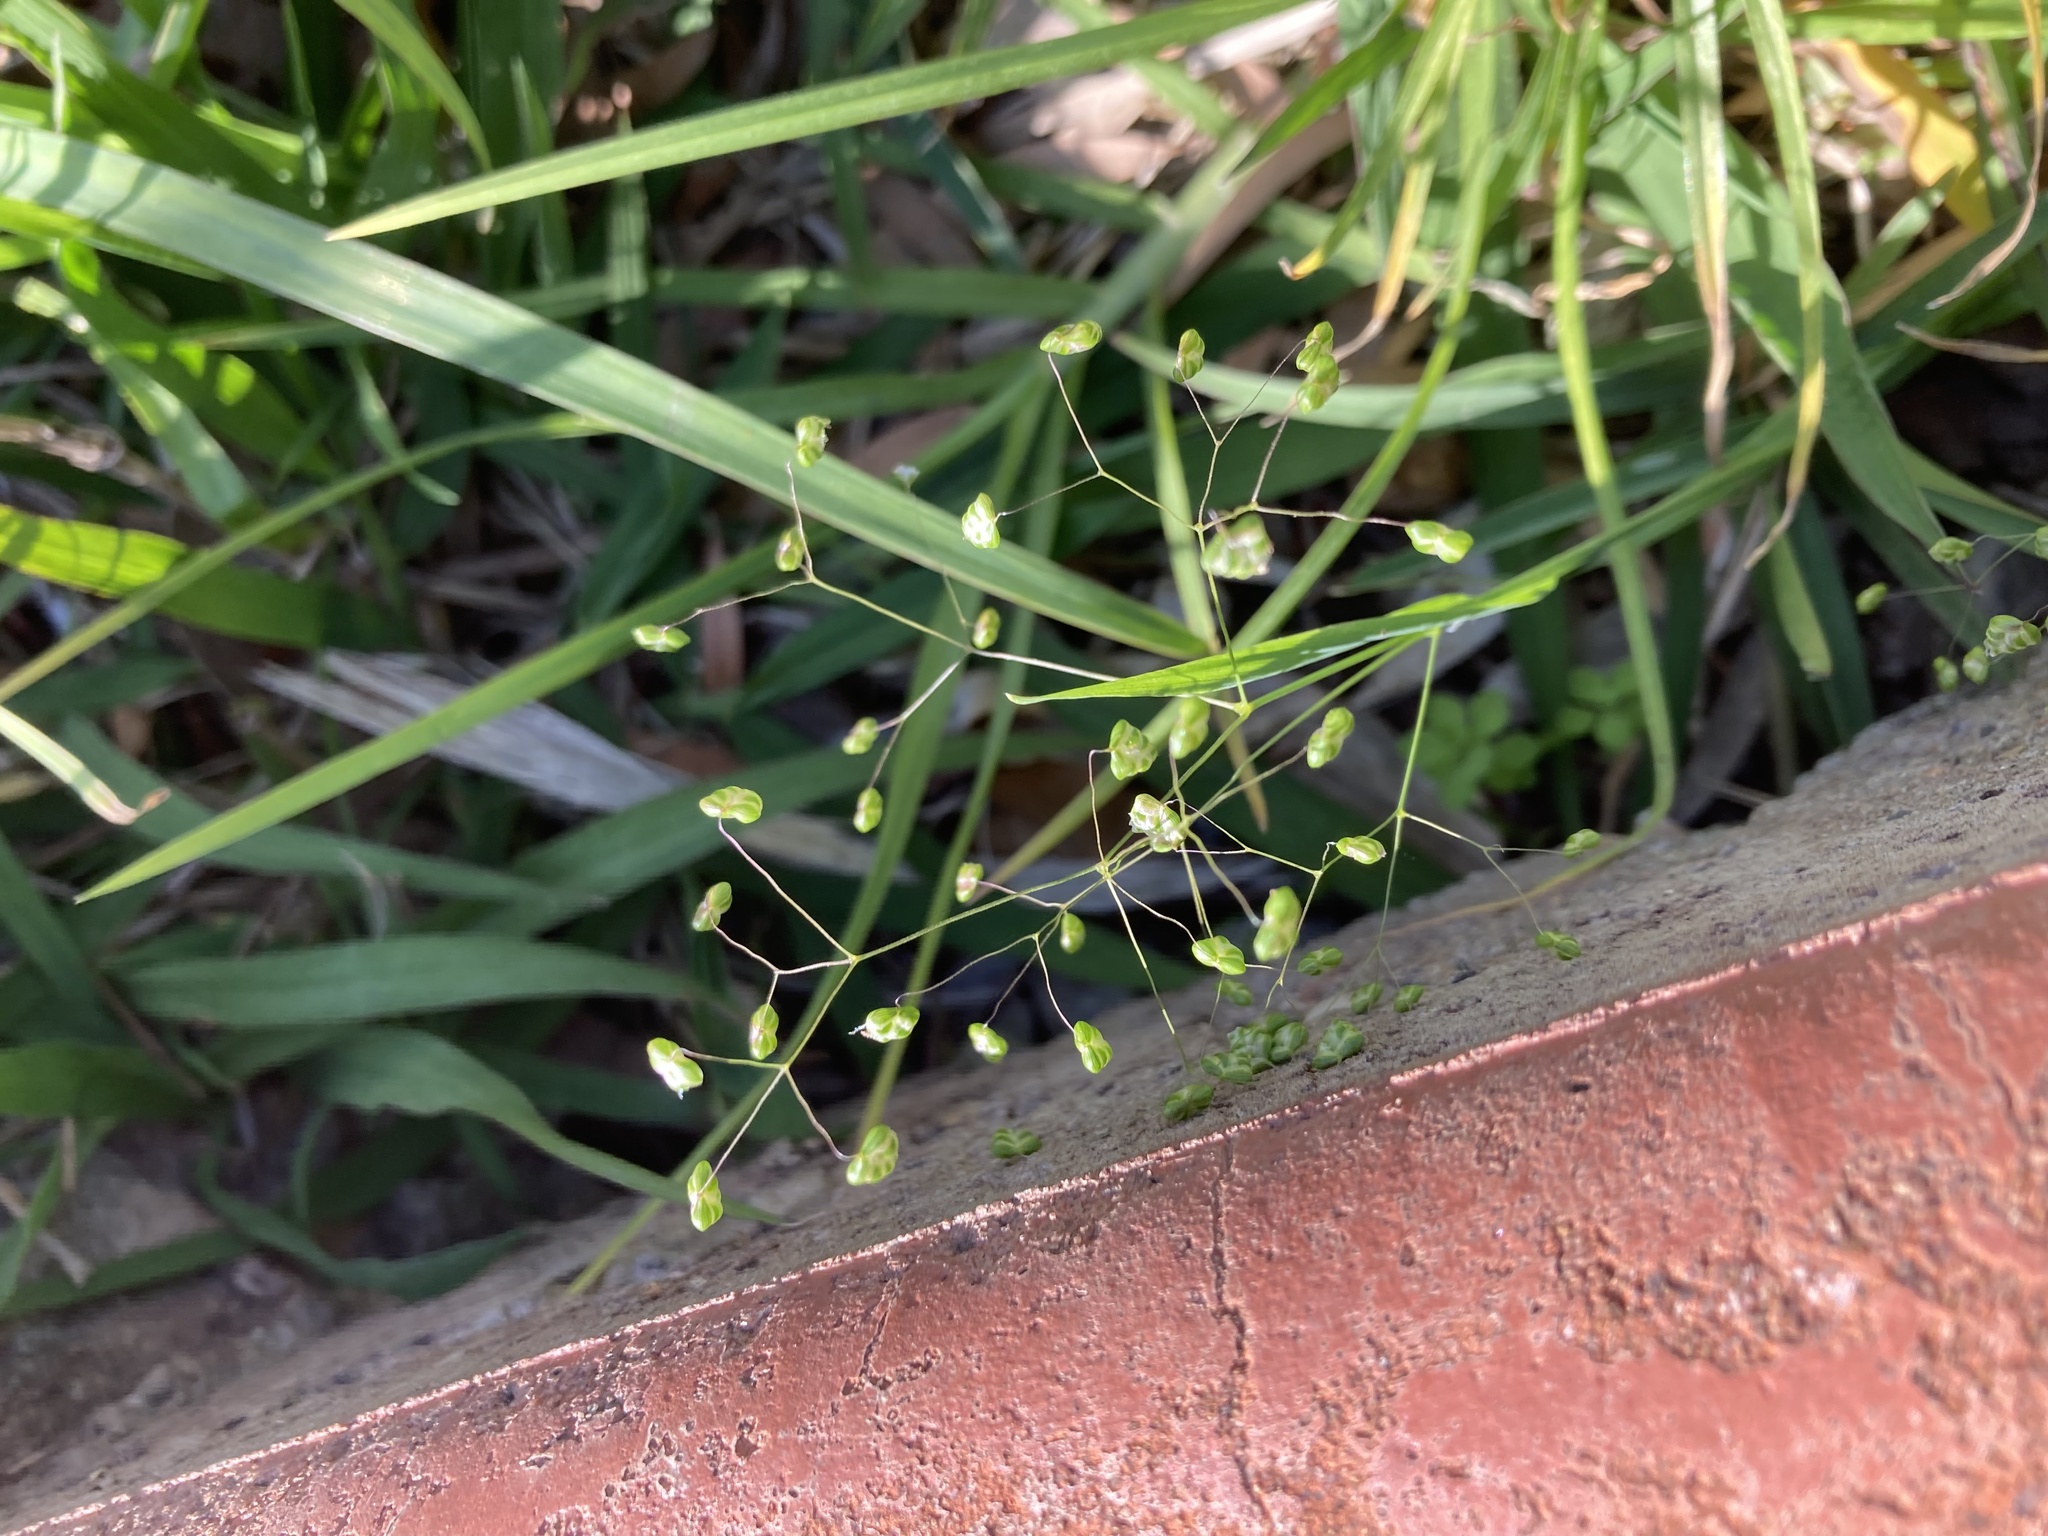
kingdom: Plantae
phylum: Tracheophyta
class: Liliopsida
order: Poales
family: Poaceae
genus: Briza
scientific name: Briza minor
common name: Lesser quaking-grass
